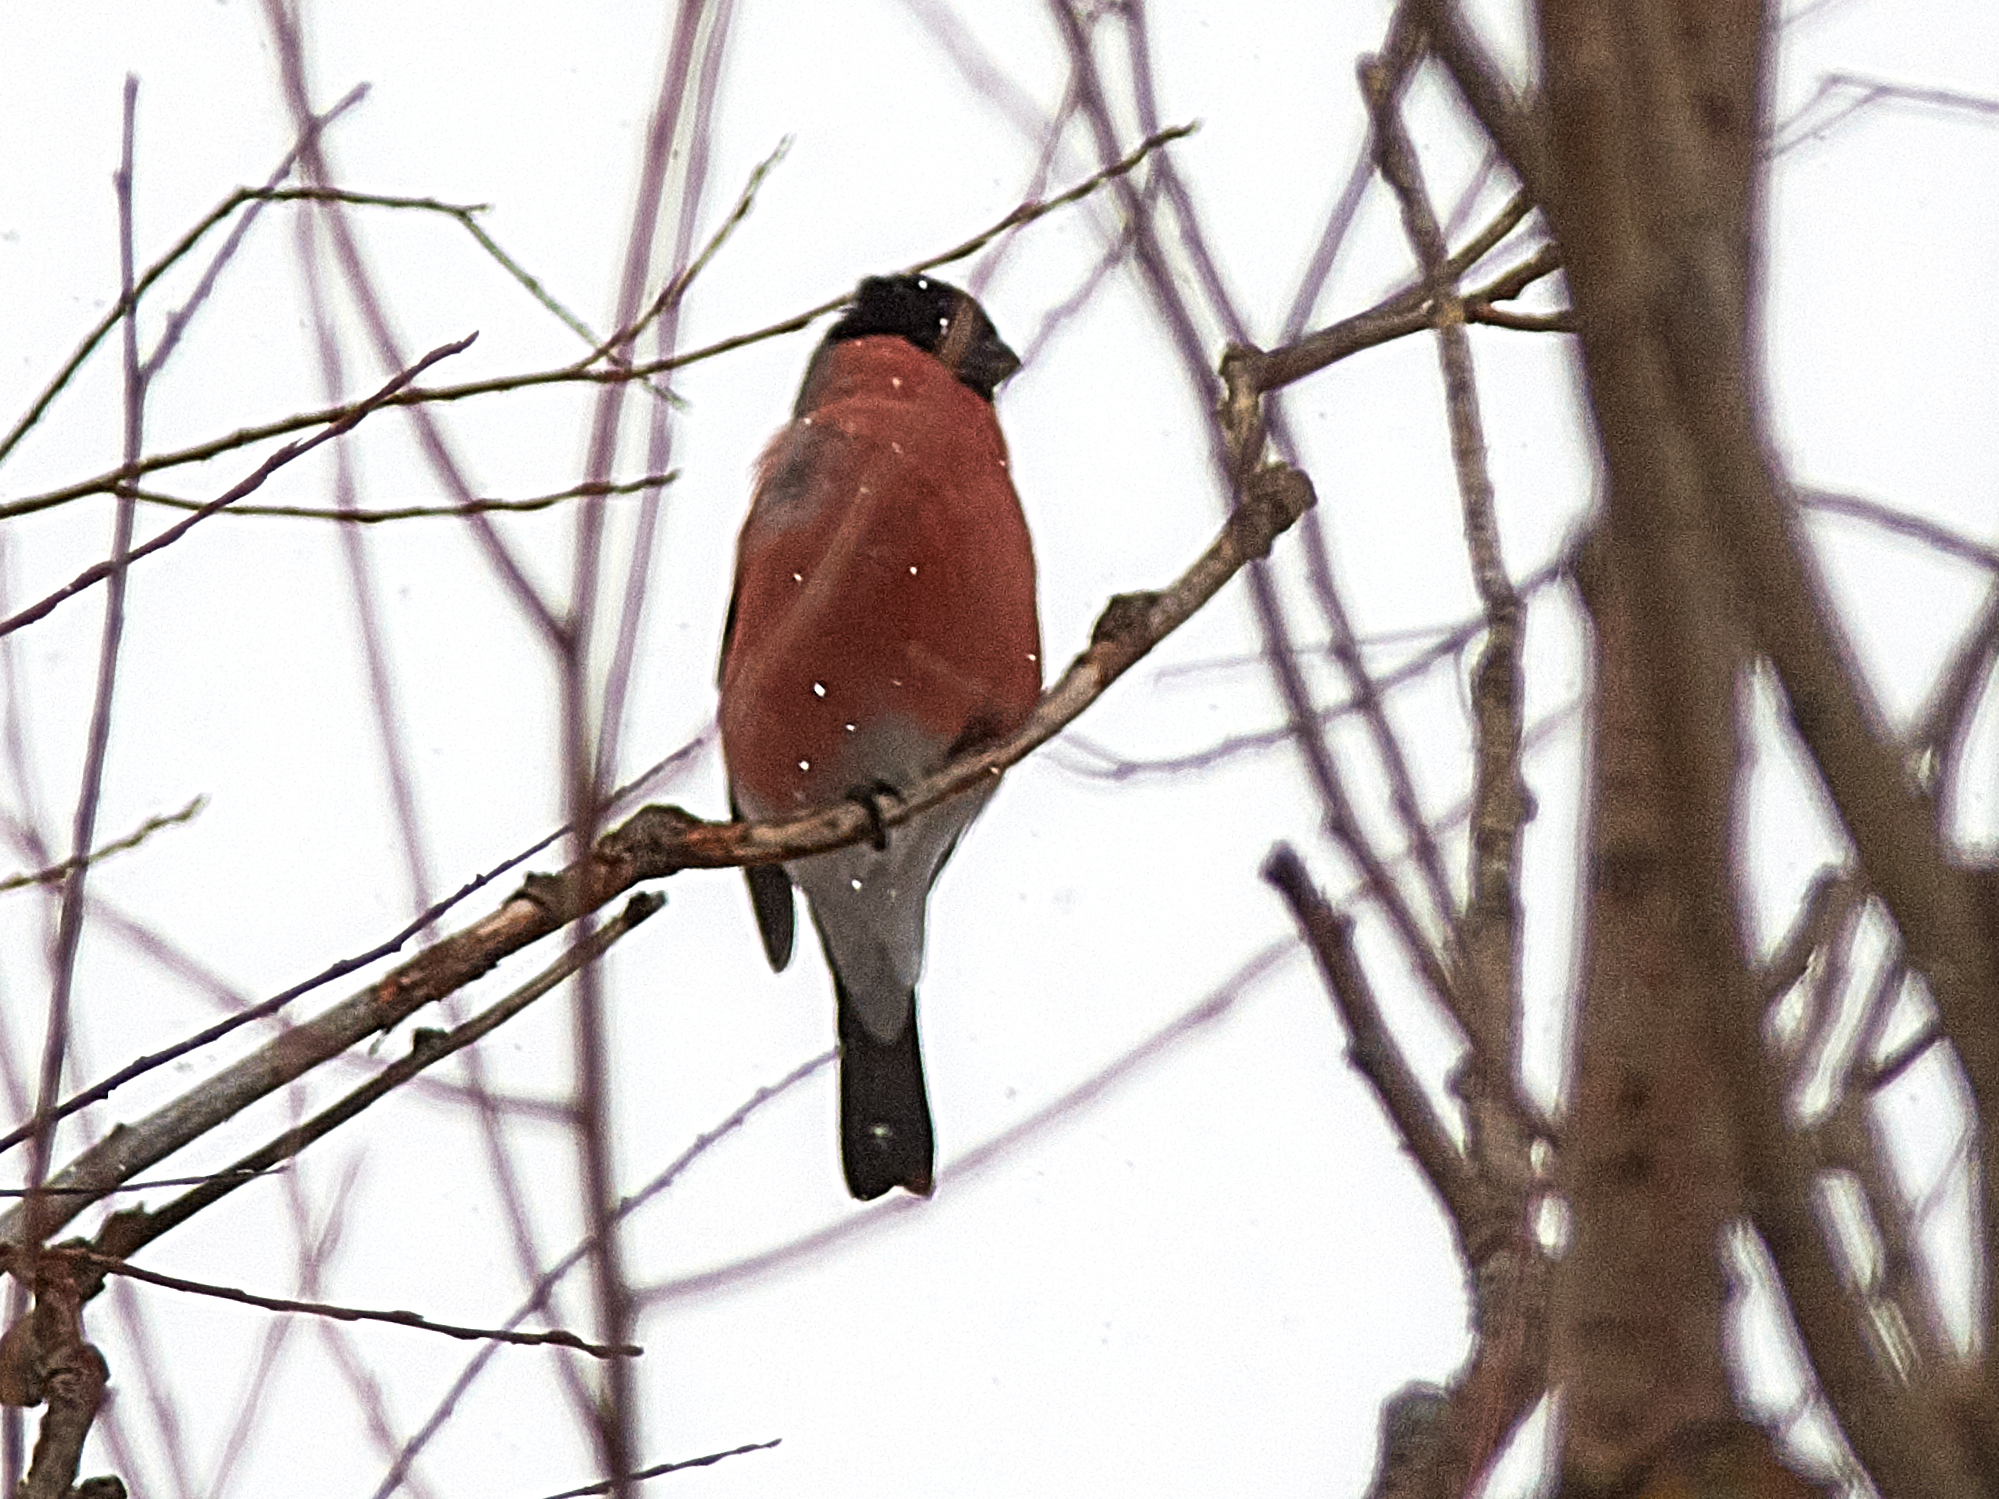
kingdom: Animalia
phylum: Chordata
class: Aves
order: Passeriformes
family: Fringillidae
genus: Pyrrhula
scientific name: Pyrrhula pyrrhula
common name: Eurasian bullfinch
